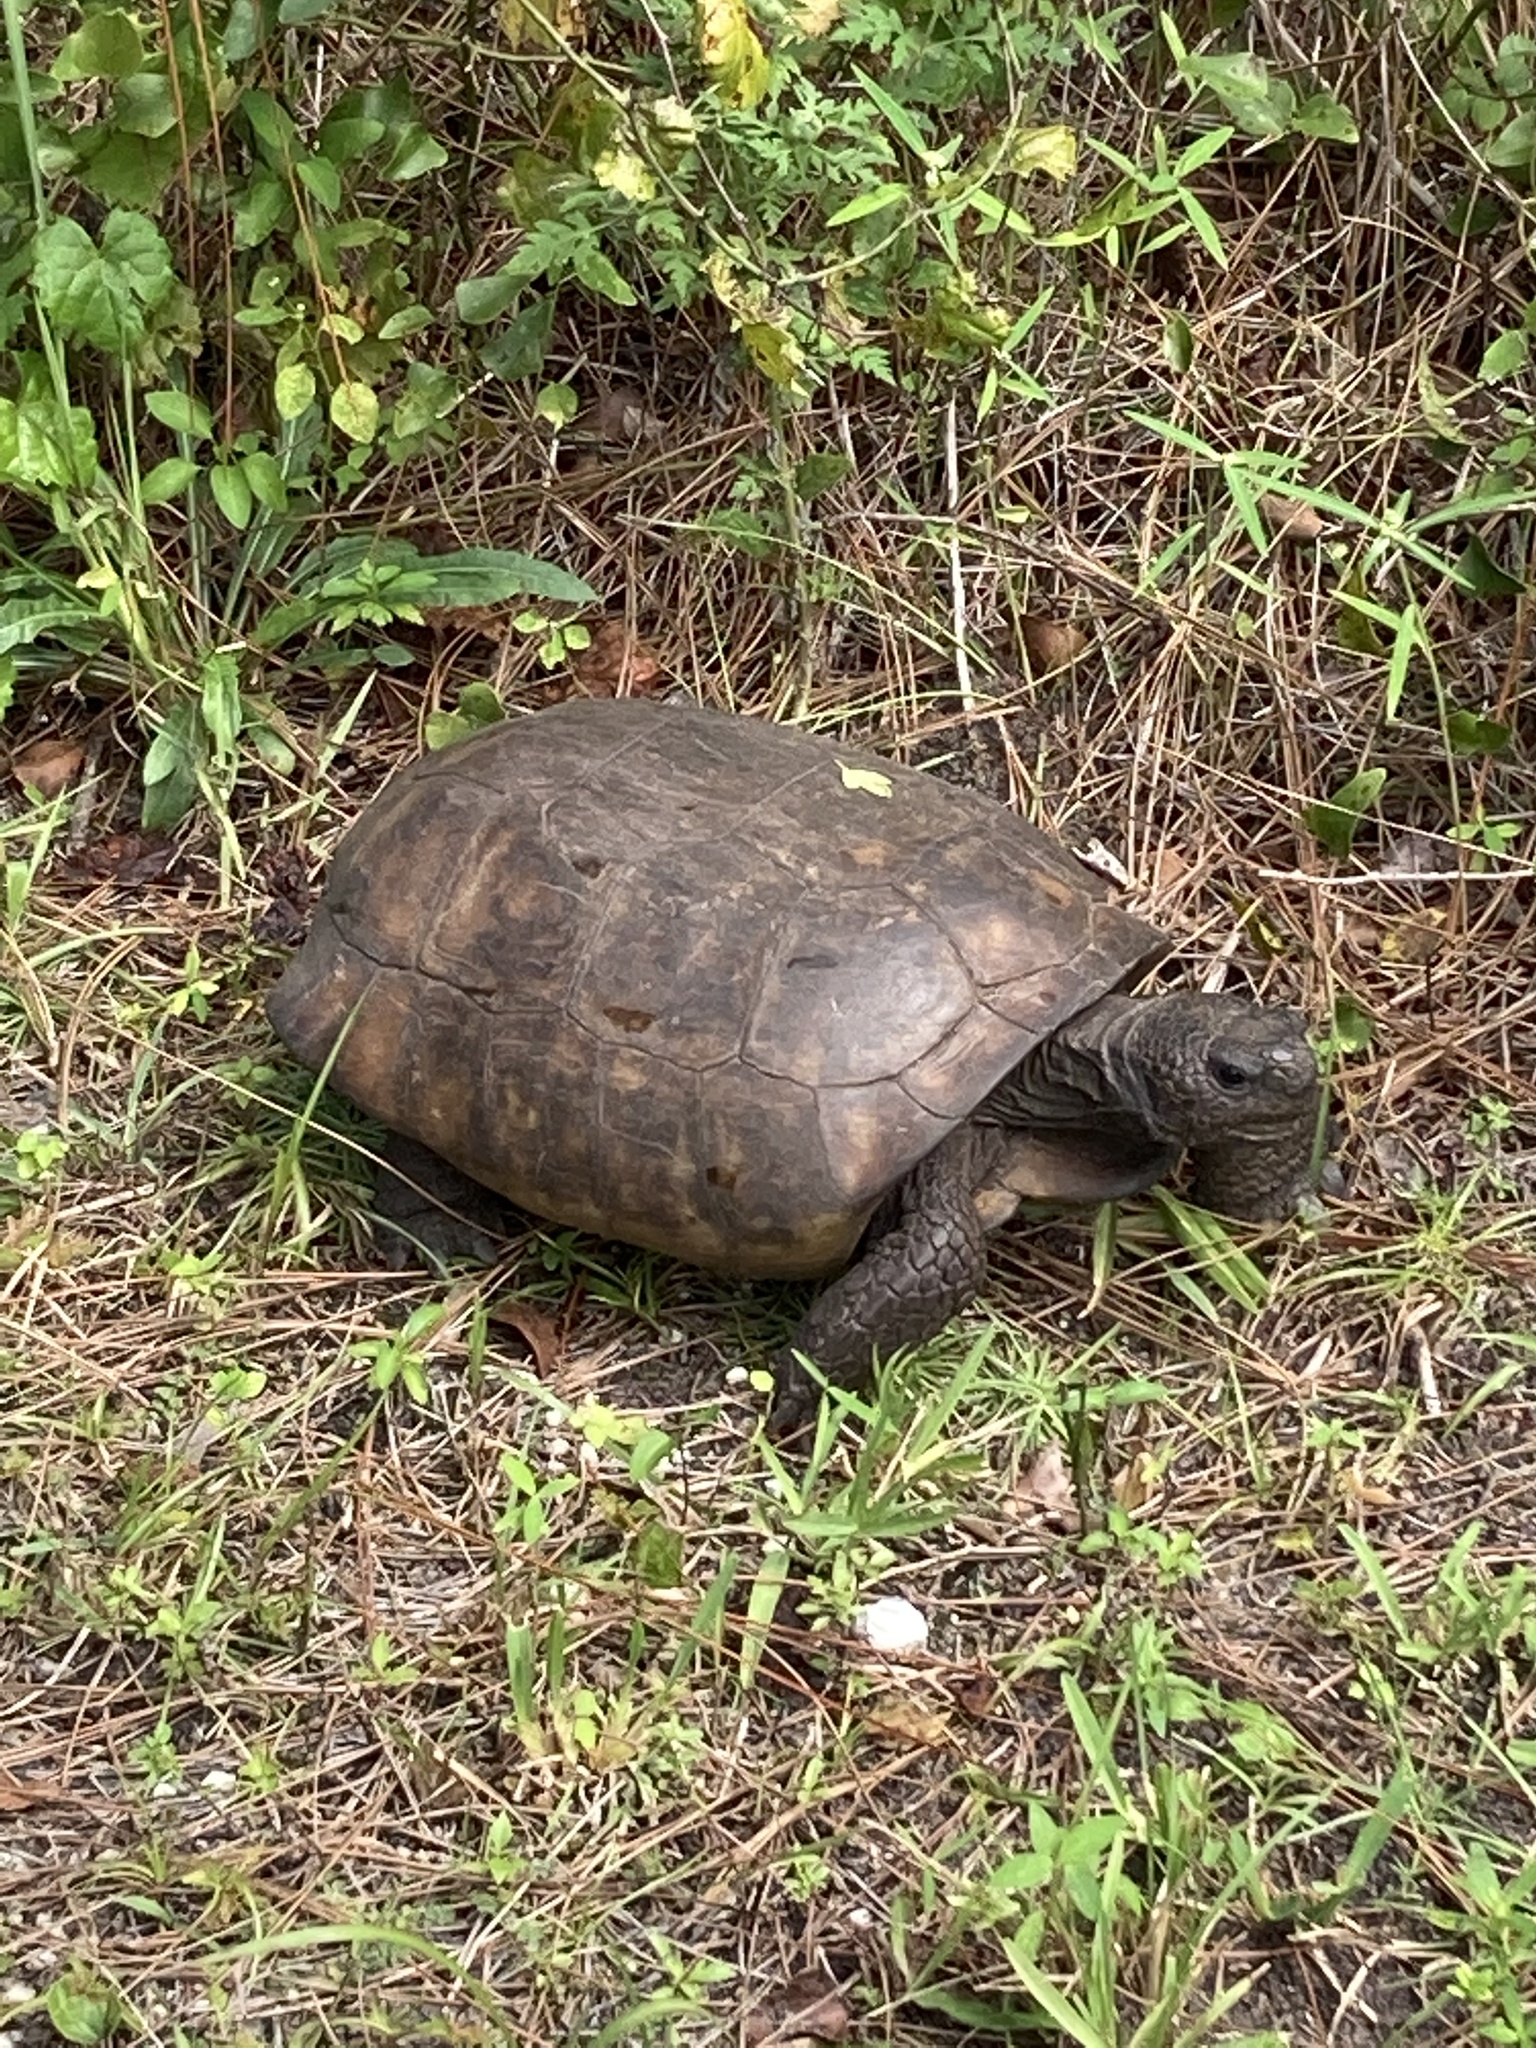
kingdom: Animalia
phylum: Chordata
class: Testudines
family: Testudinidae
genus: Gopherus
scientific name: Gopherus polyphemus
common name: Florida gopher tortoise
